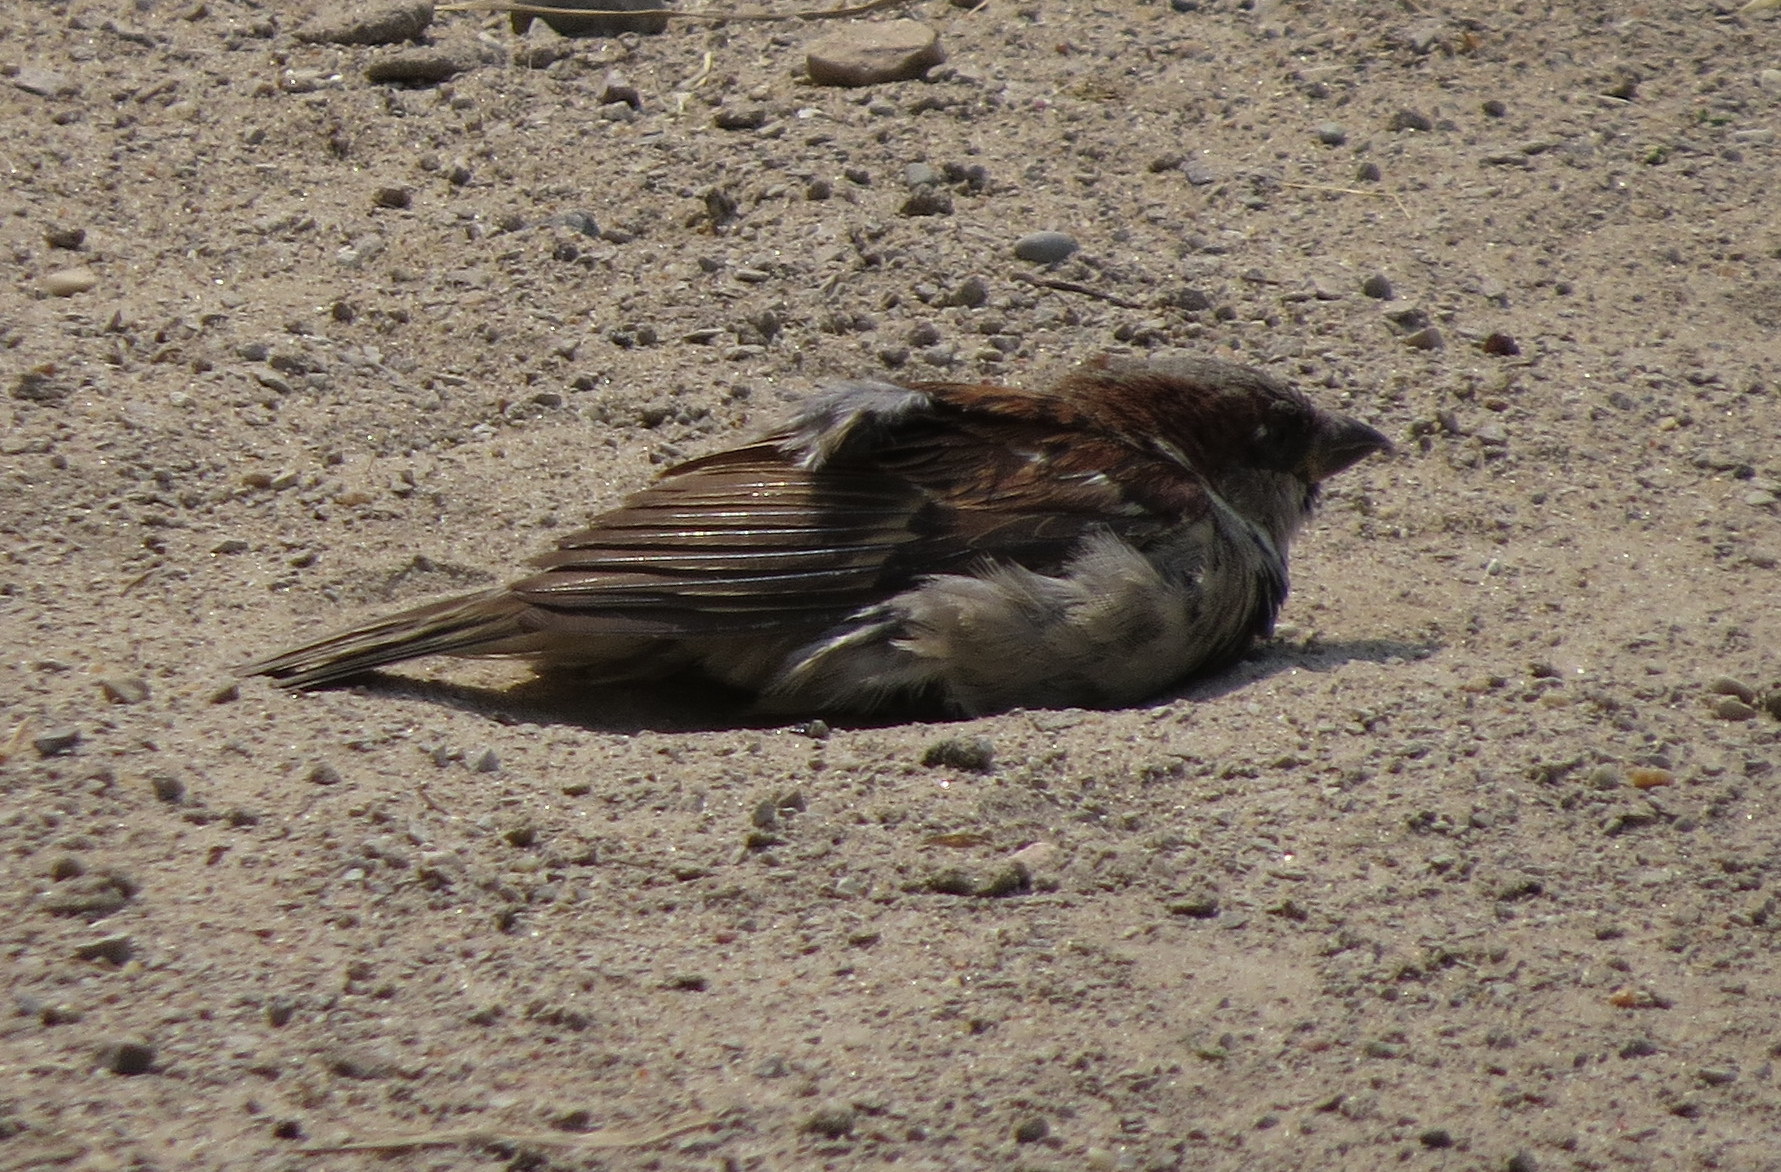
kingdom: Animalia
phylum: Chordata
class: Aves
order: Passeriformes
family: Passeridae
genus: Passer
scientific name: Passer domesticus
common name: House sparrow
